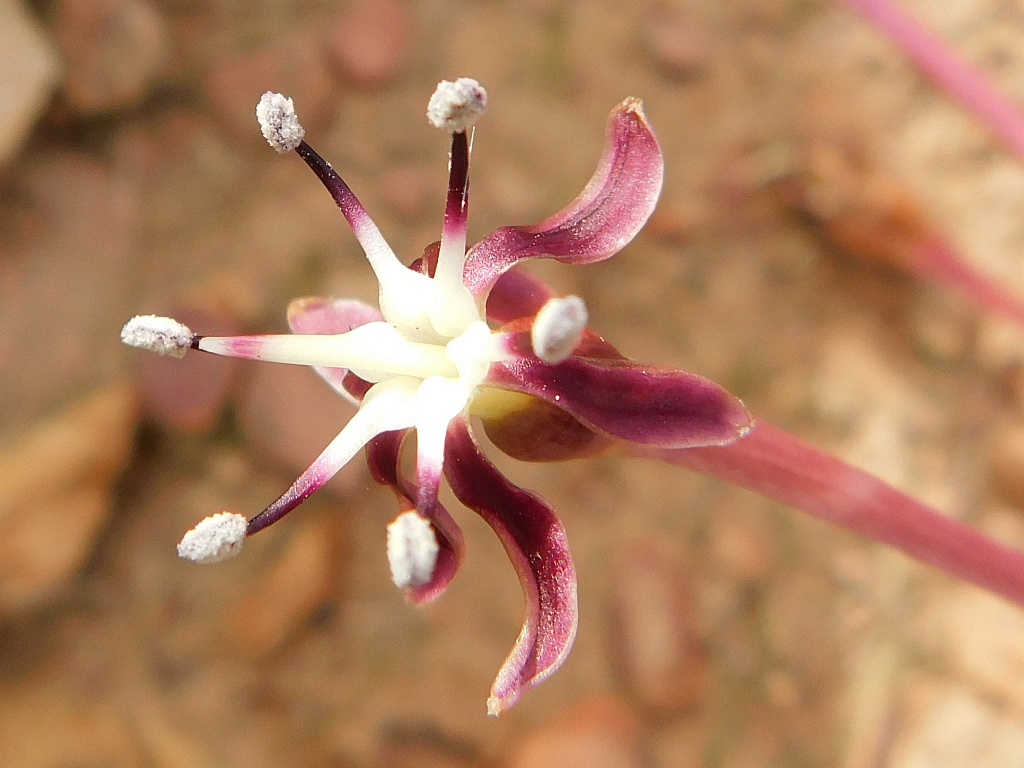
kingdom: Plantae
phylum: Tracheophyta
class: Liliopsida
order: Asparagales
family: Amaryllidaceae
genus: Crossyne
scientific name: Crossyne guttata
